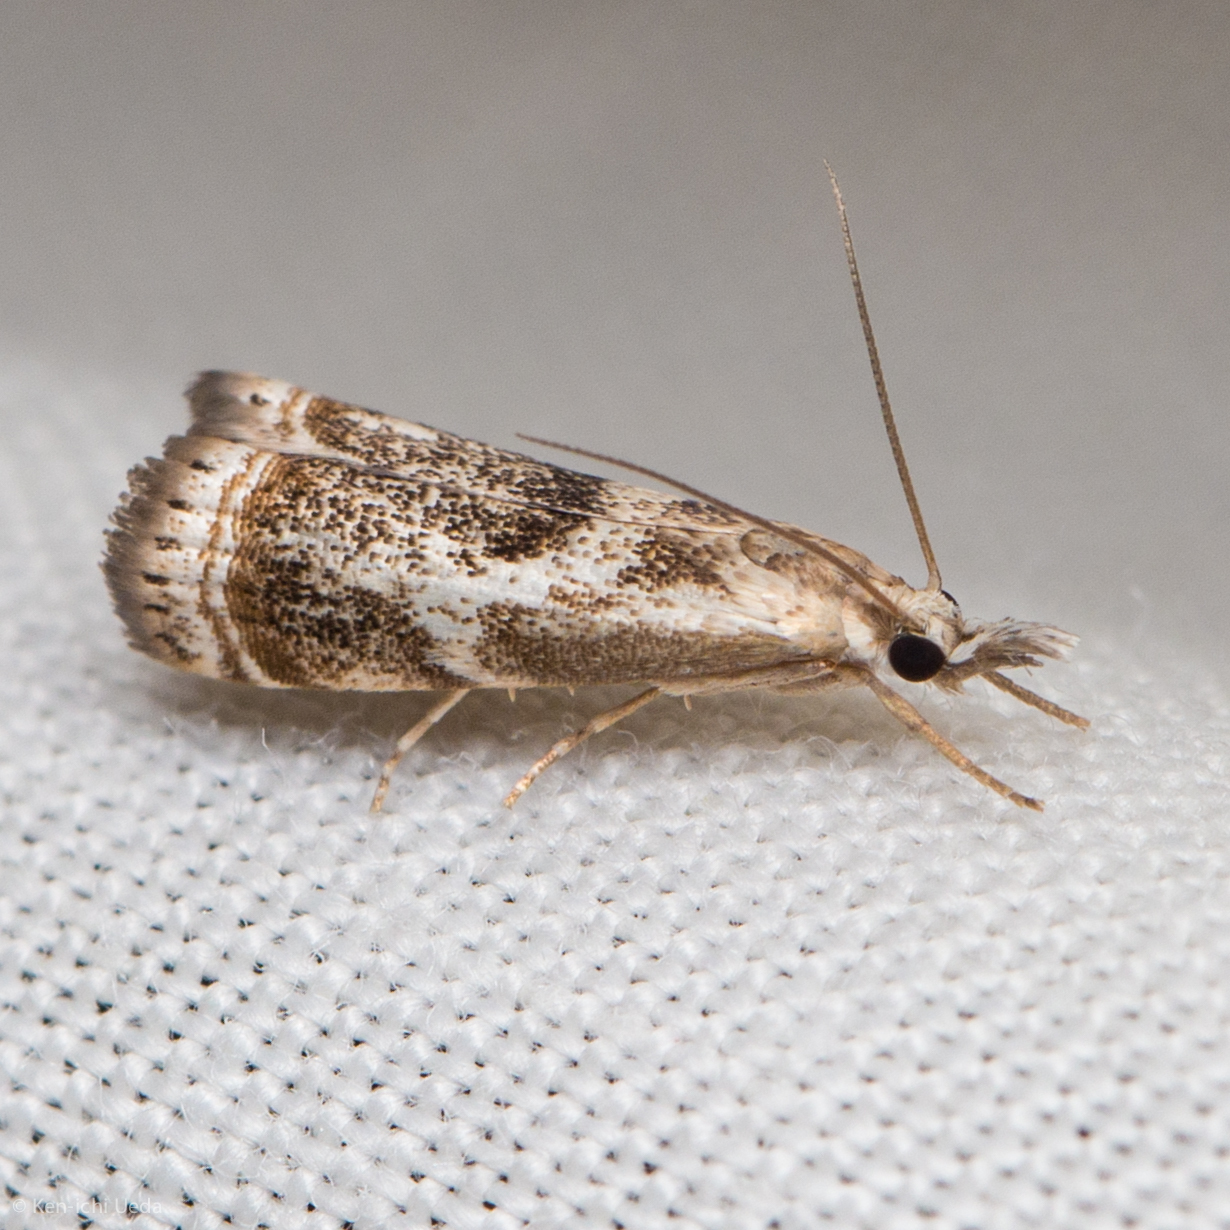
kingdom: Animalia
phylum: Arthropoda
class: Insecta
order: Lepidoptera
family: Crambidae
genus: Microcrambus
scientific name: Microcrambus elegans
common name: Elegant grass-veneer
